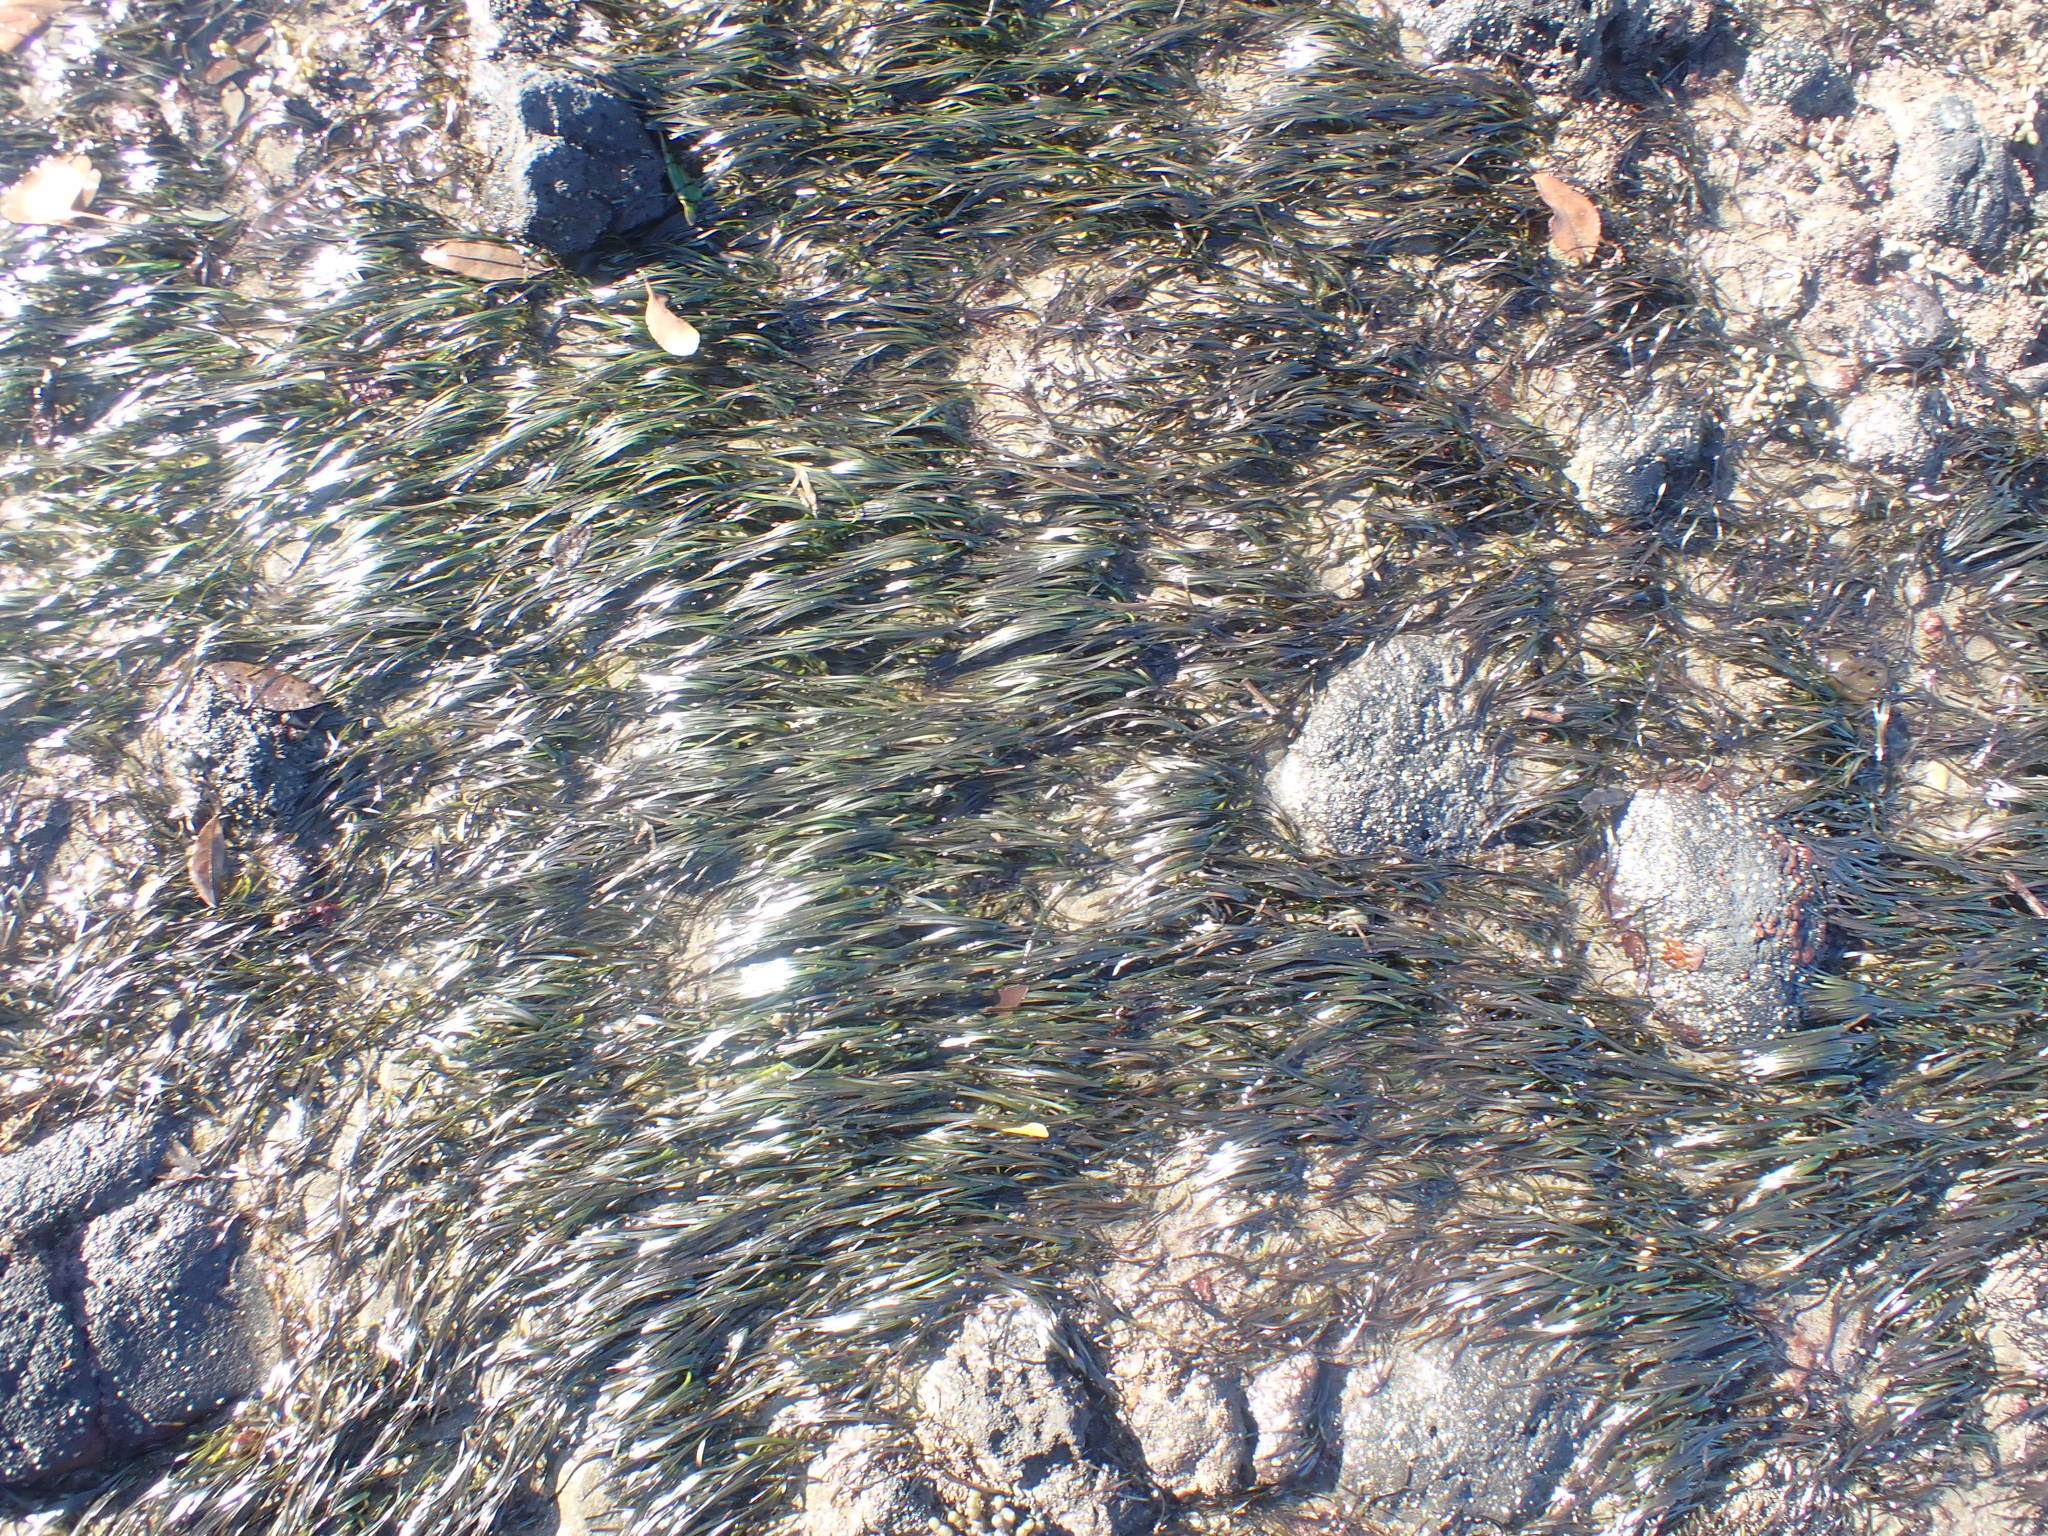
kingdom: Plantae
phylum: Tracheophyta
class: Liliopsida
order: Alismatales
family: Zosteraceae
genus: Zostera
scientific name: Zostera novazelandica
